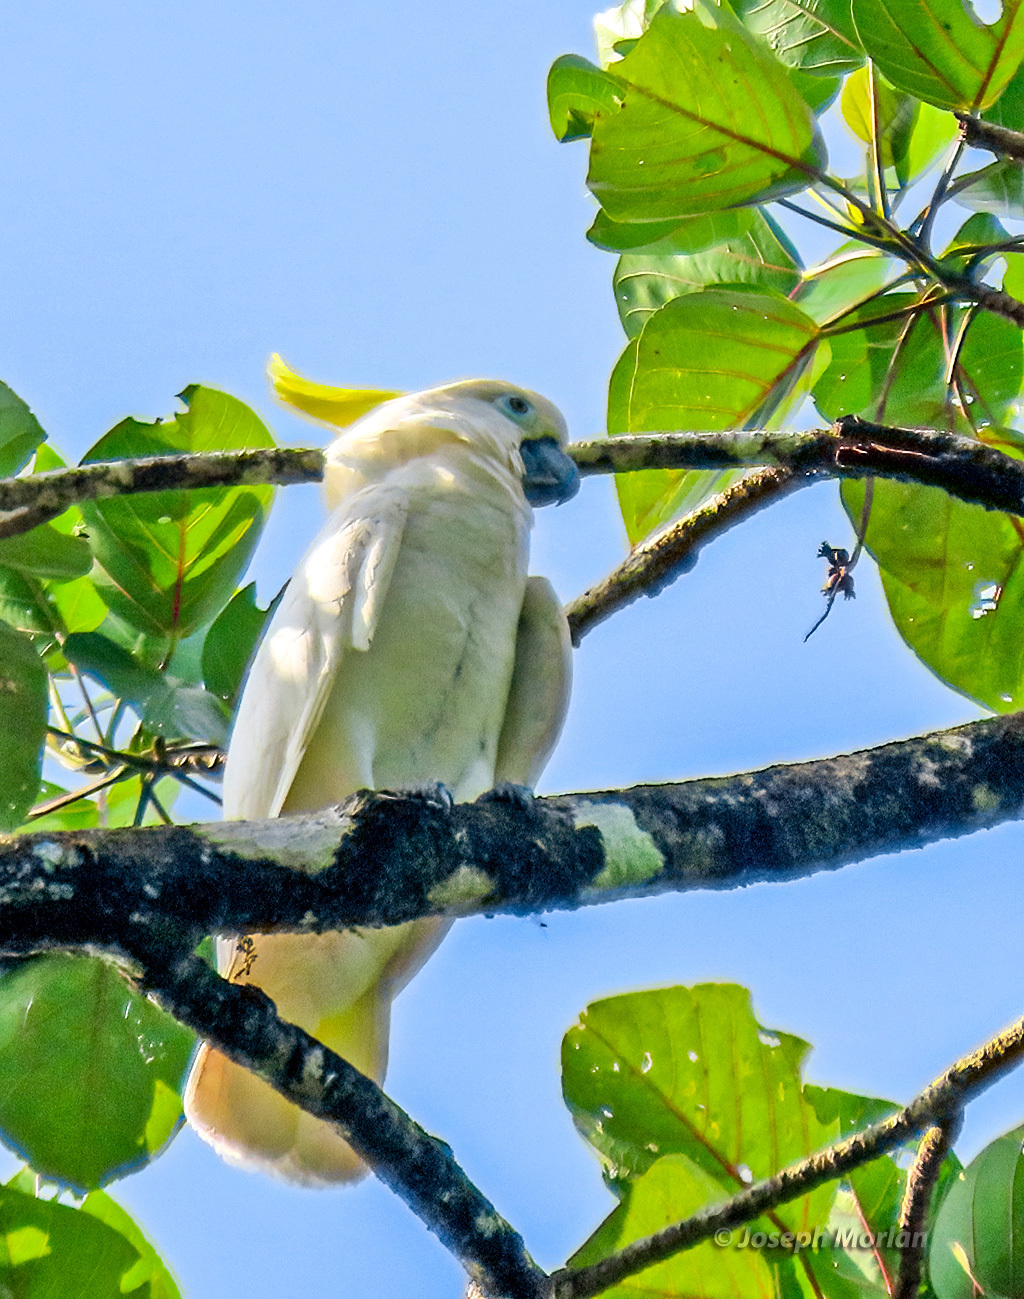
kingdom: Animalia
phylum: Chordata
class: Aves
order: Psittaciformes
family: Psittacidae
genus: Cacatua
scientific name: Cacatua galerita
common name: Sulphur-crested cockatoo
